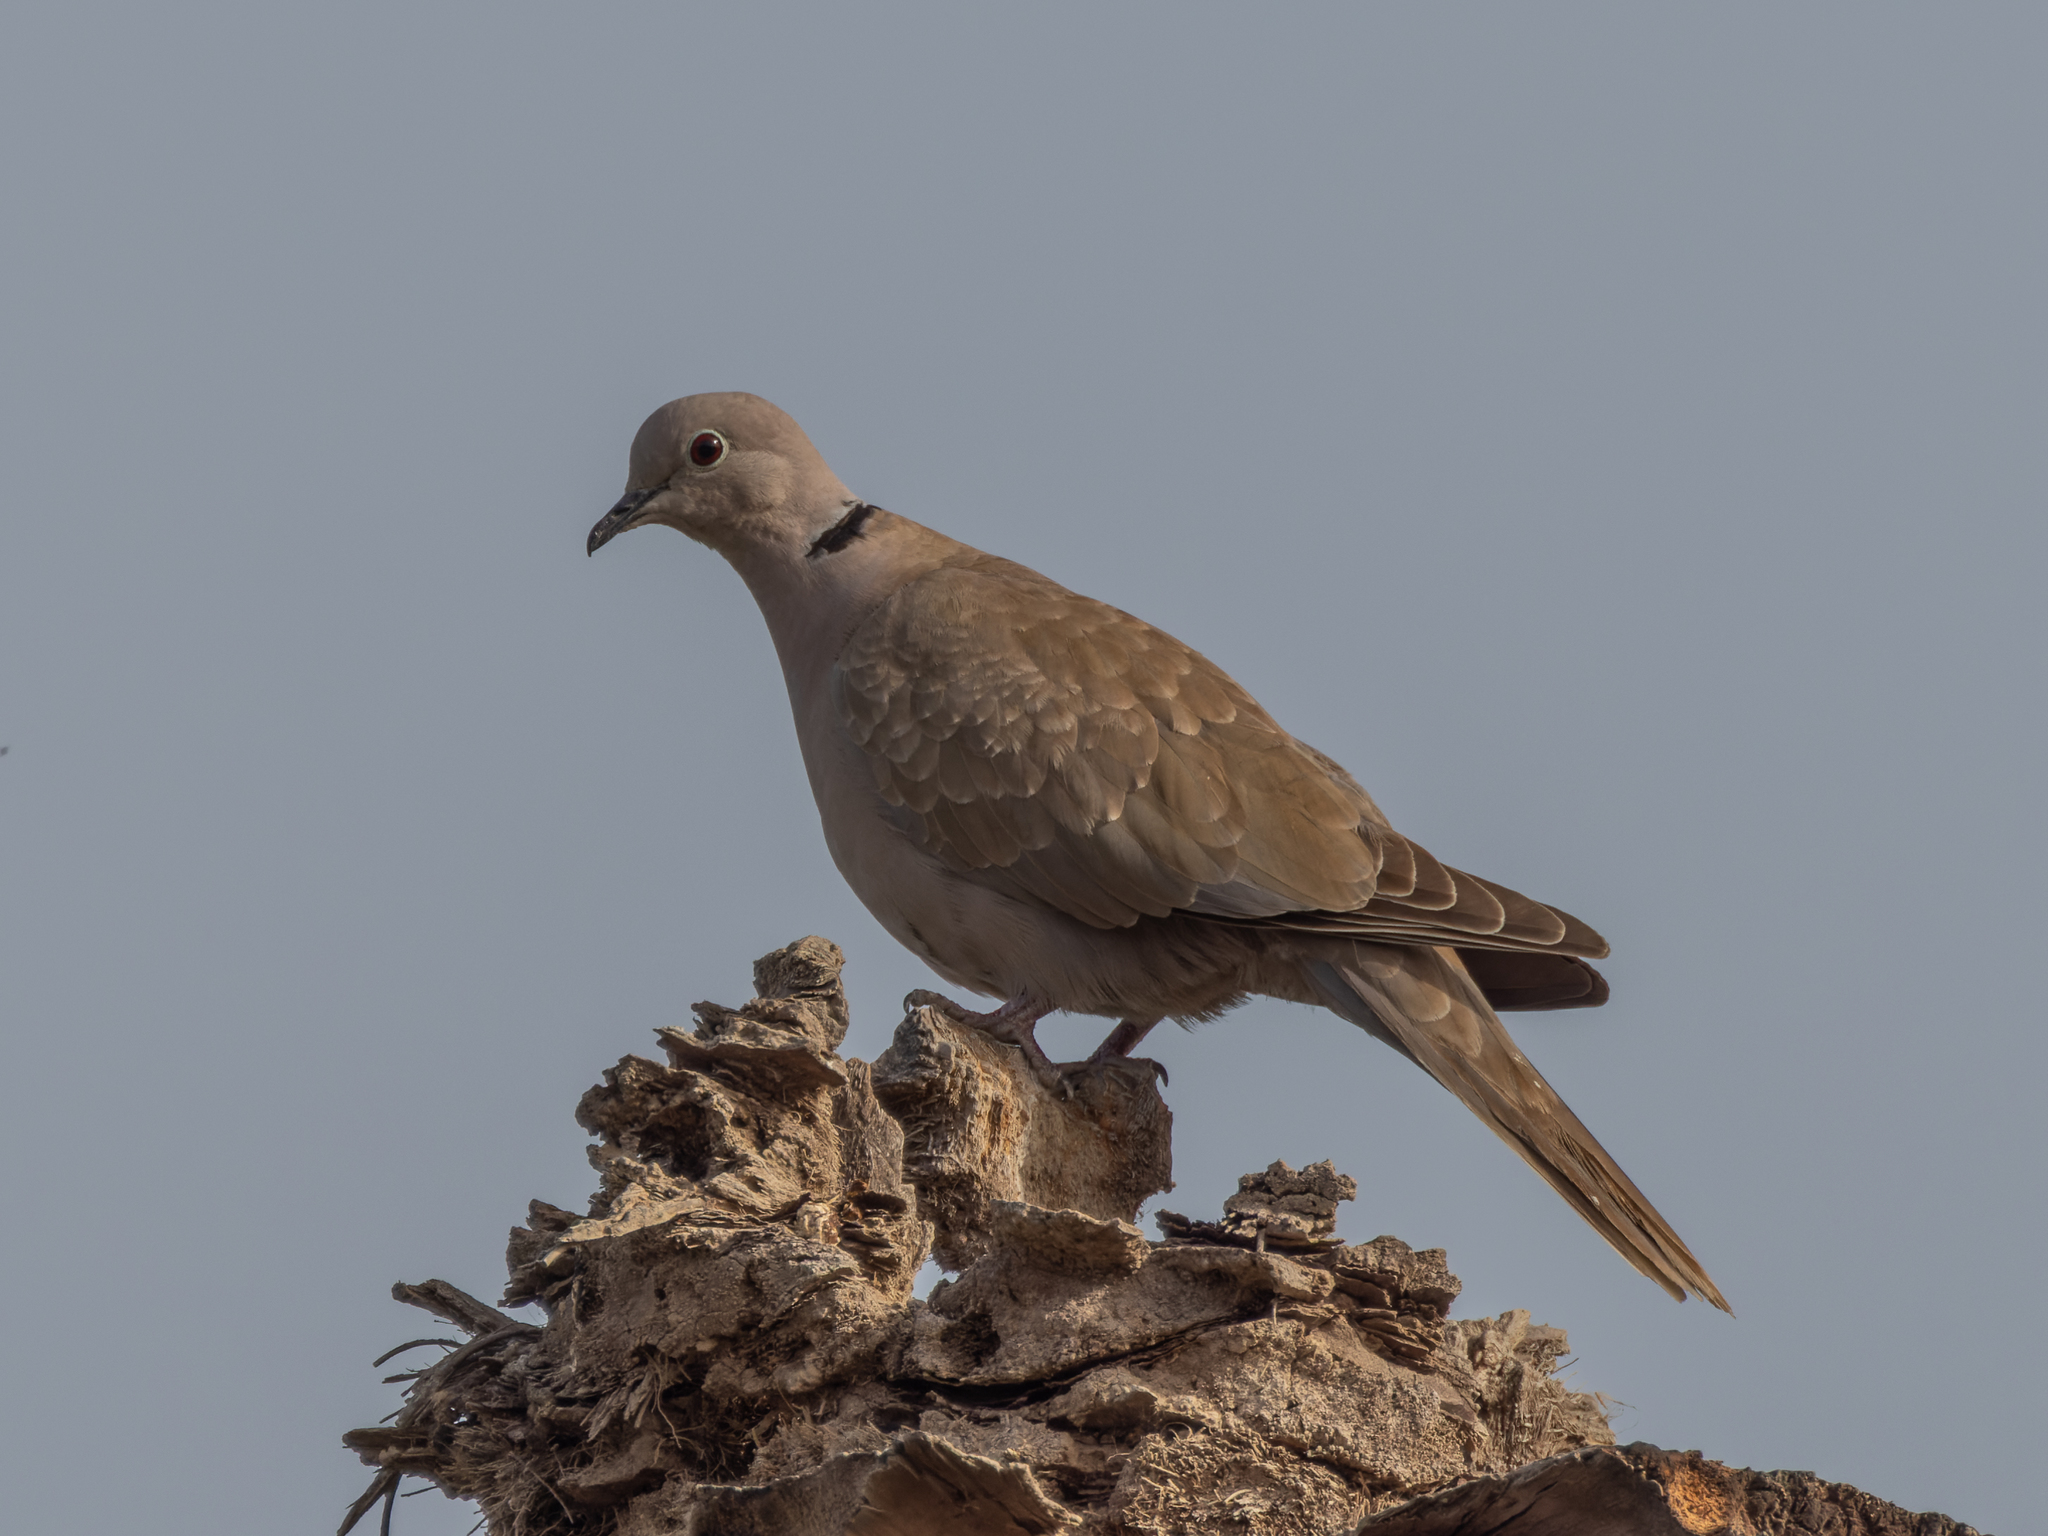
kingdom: Animalia
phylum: Chordata
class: Aves
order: Columbiformes
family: Columbidae
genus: Streptopelia
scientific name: Streptopelia decaocto
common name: Eurasian collared dove
